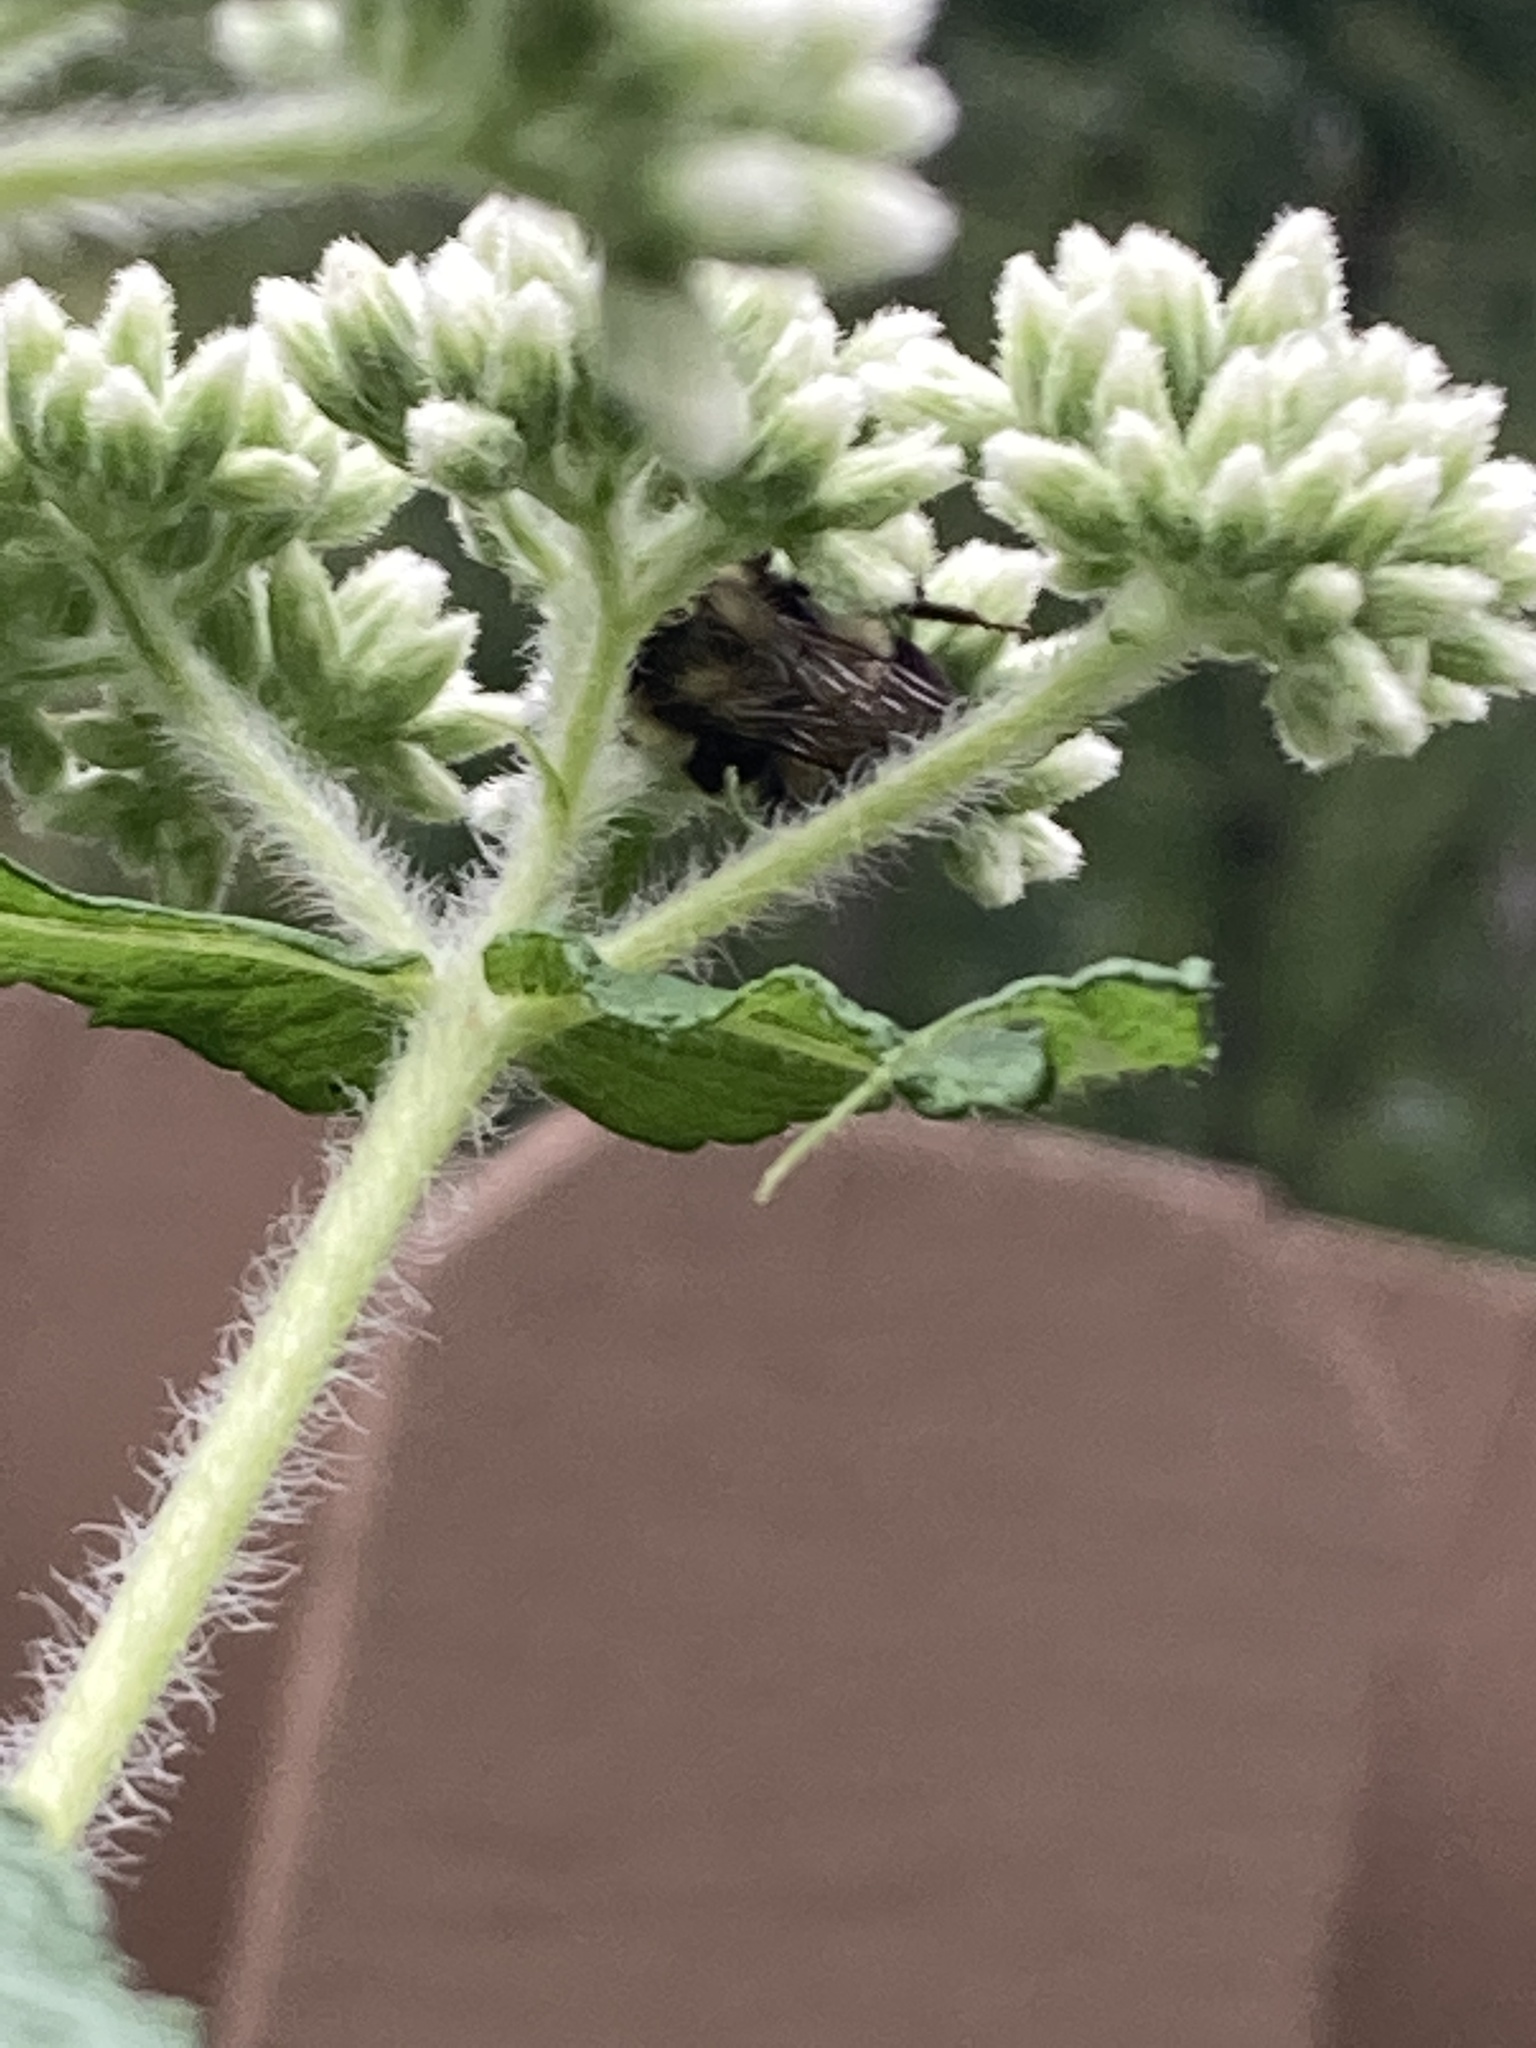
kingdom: Animalia
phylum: Arthropoda
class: Insecta
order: Hymenoptera
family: Apidae
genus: Bombus
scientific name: Bombus impatiens
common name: Common eastern bumble bee
